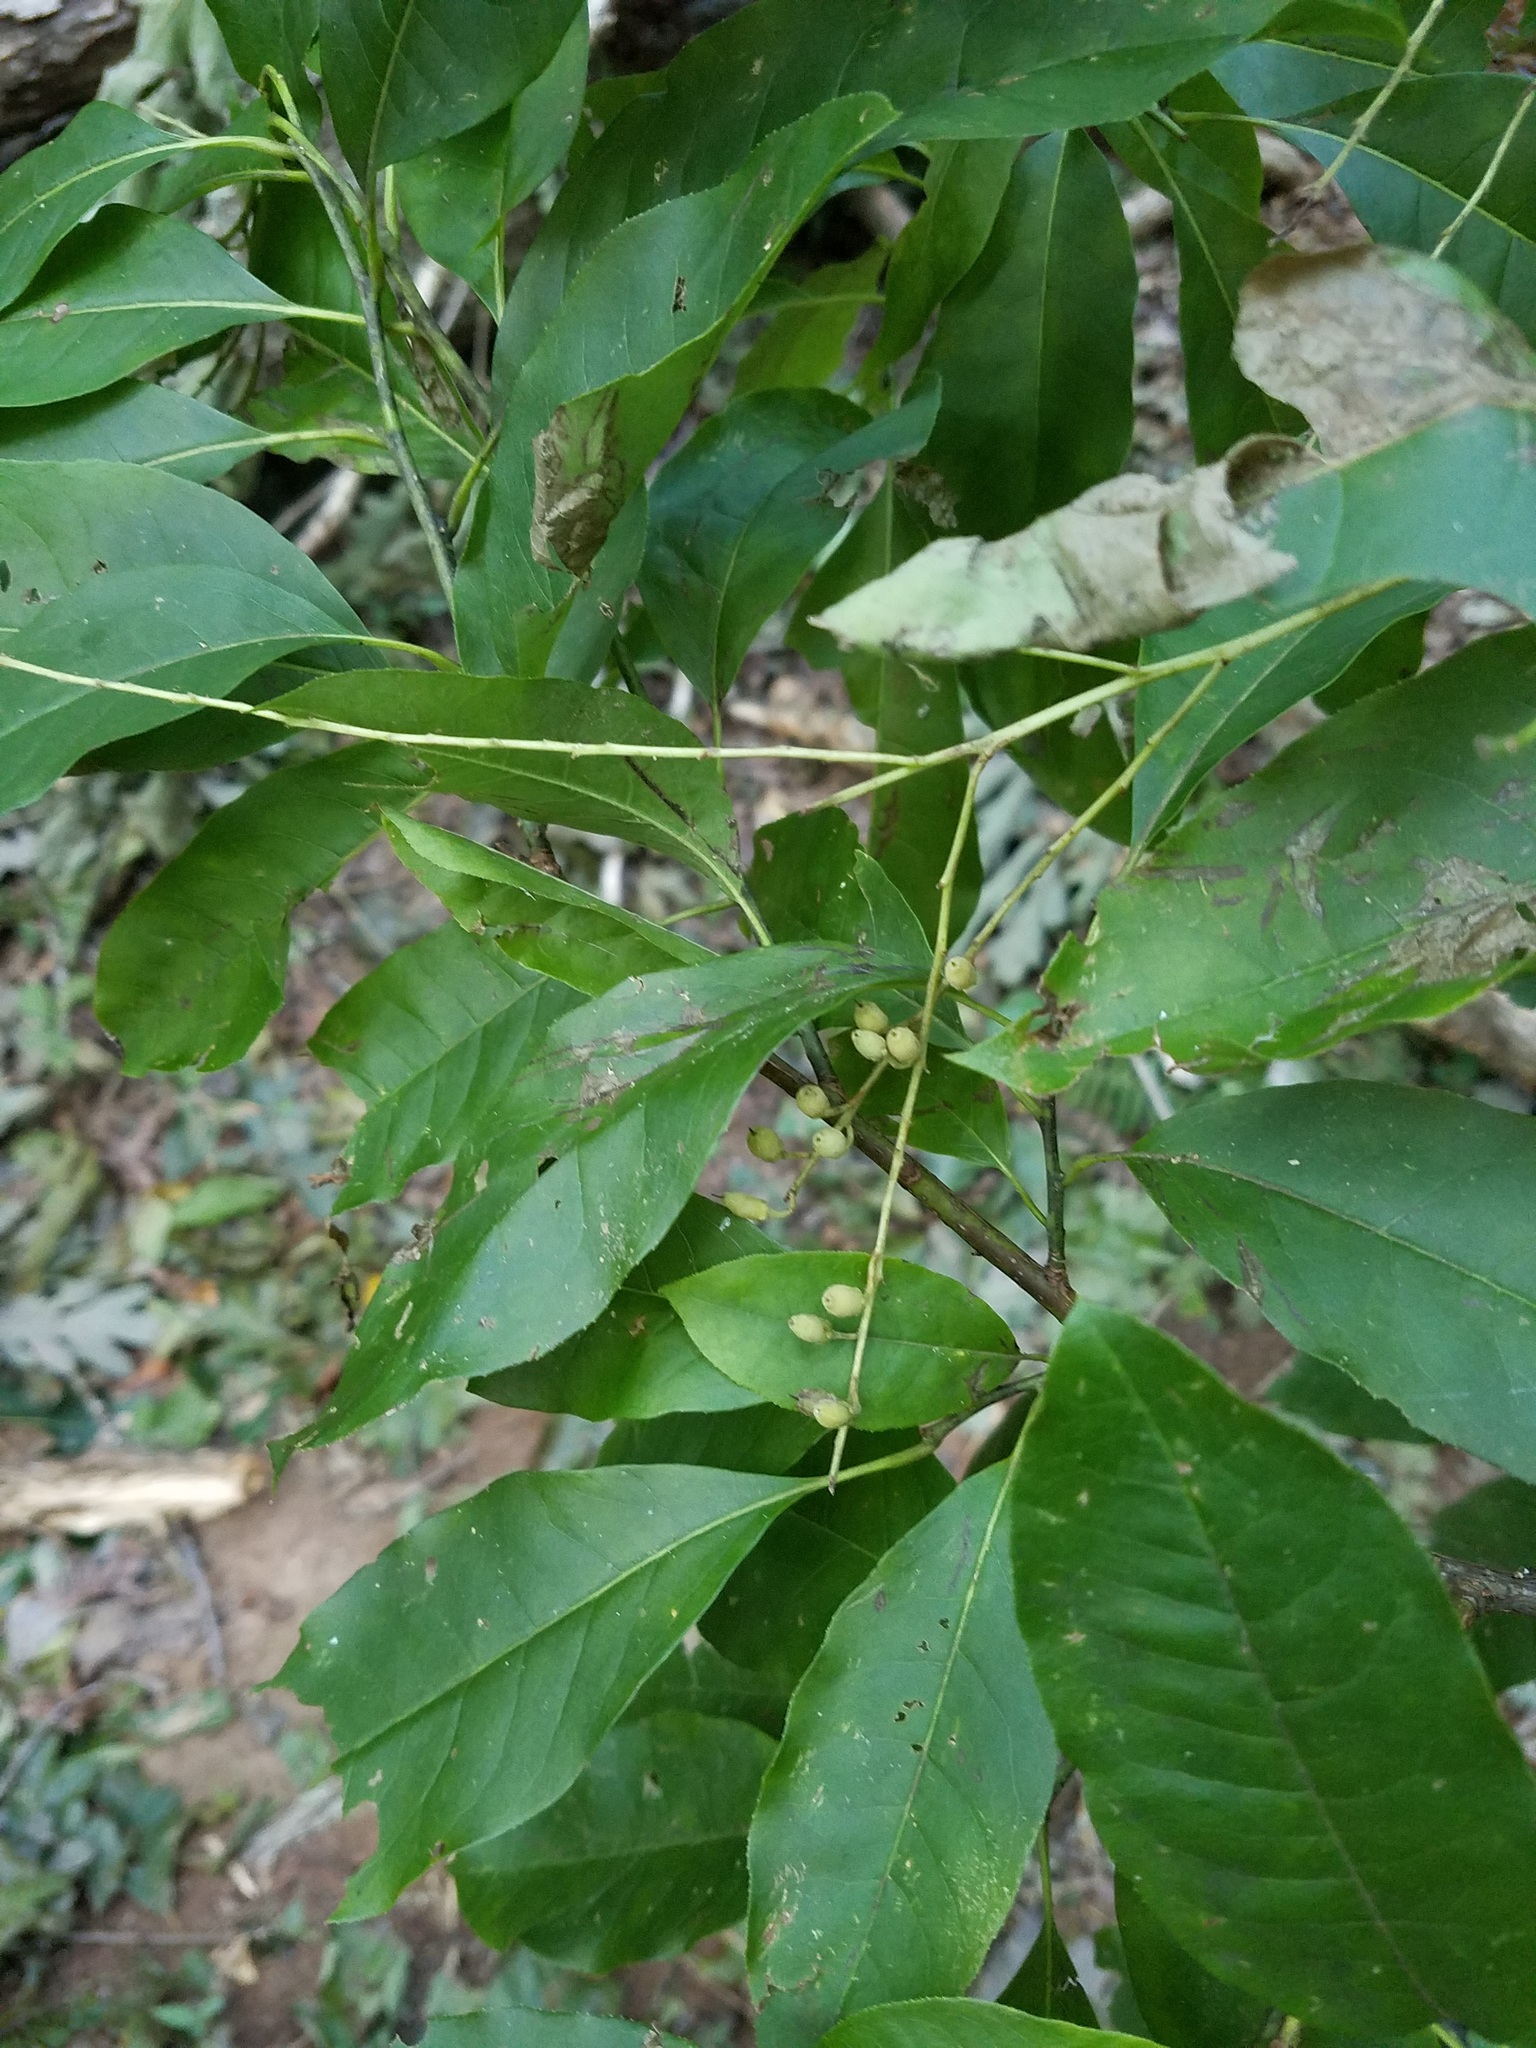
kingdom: Plantae
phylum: Tracheophyta
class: Magnoliopsida
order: Ericales
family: Ericaceae
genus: Oxydendrum
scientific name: Oxydendrum arboreum
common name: Sourwood
